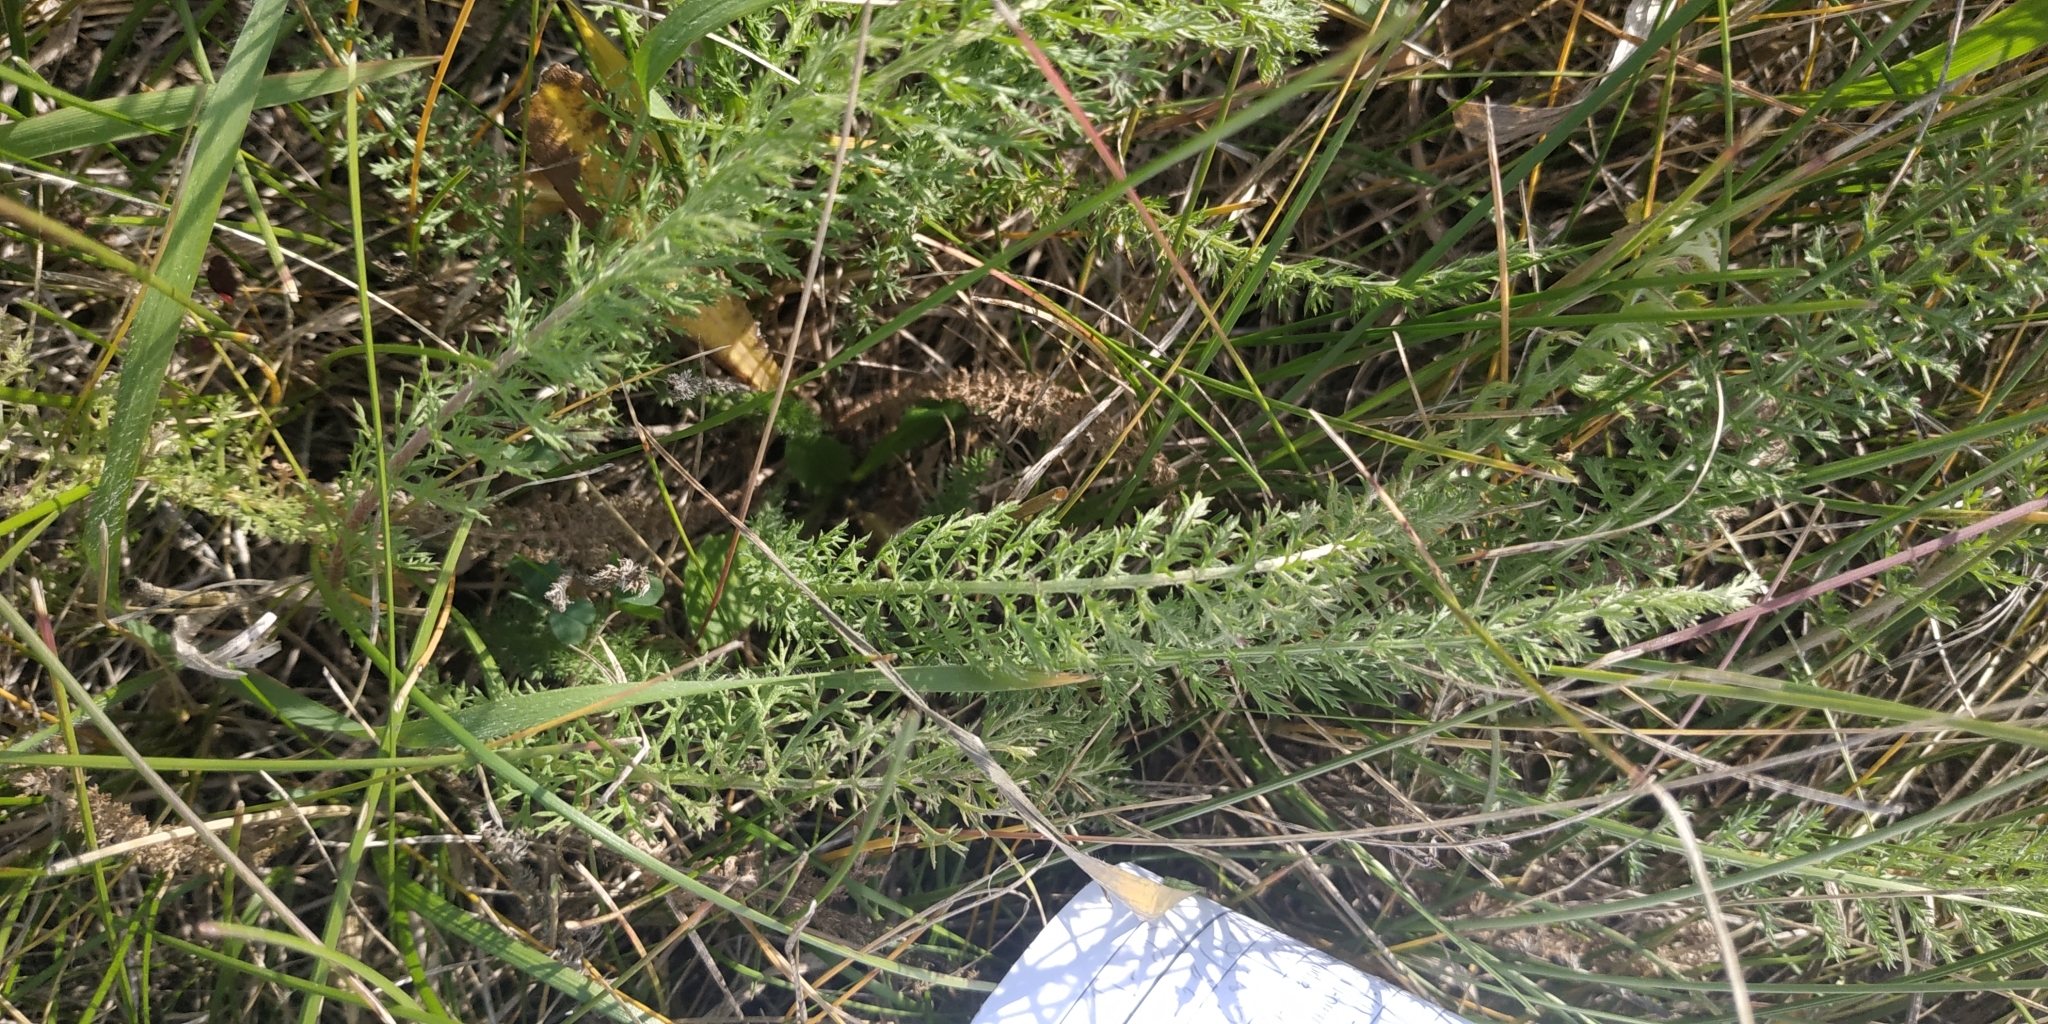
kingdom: Plantae
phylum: Tracheophyta
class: Magnoliopsida
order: Asterales
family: Asteraceae
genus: Achillea
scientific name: Achillea millefolium
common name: Yarrow
